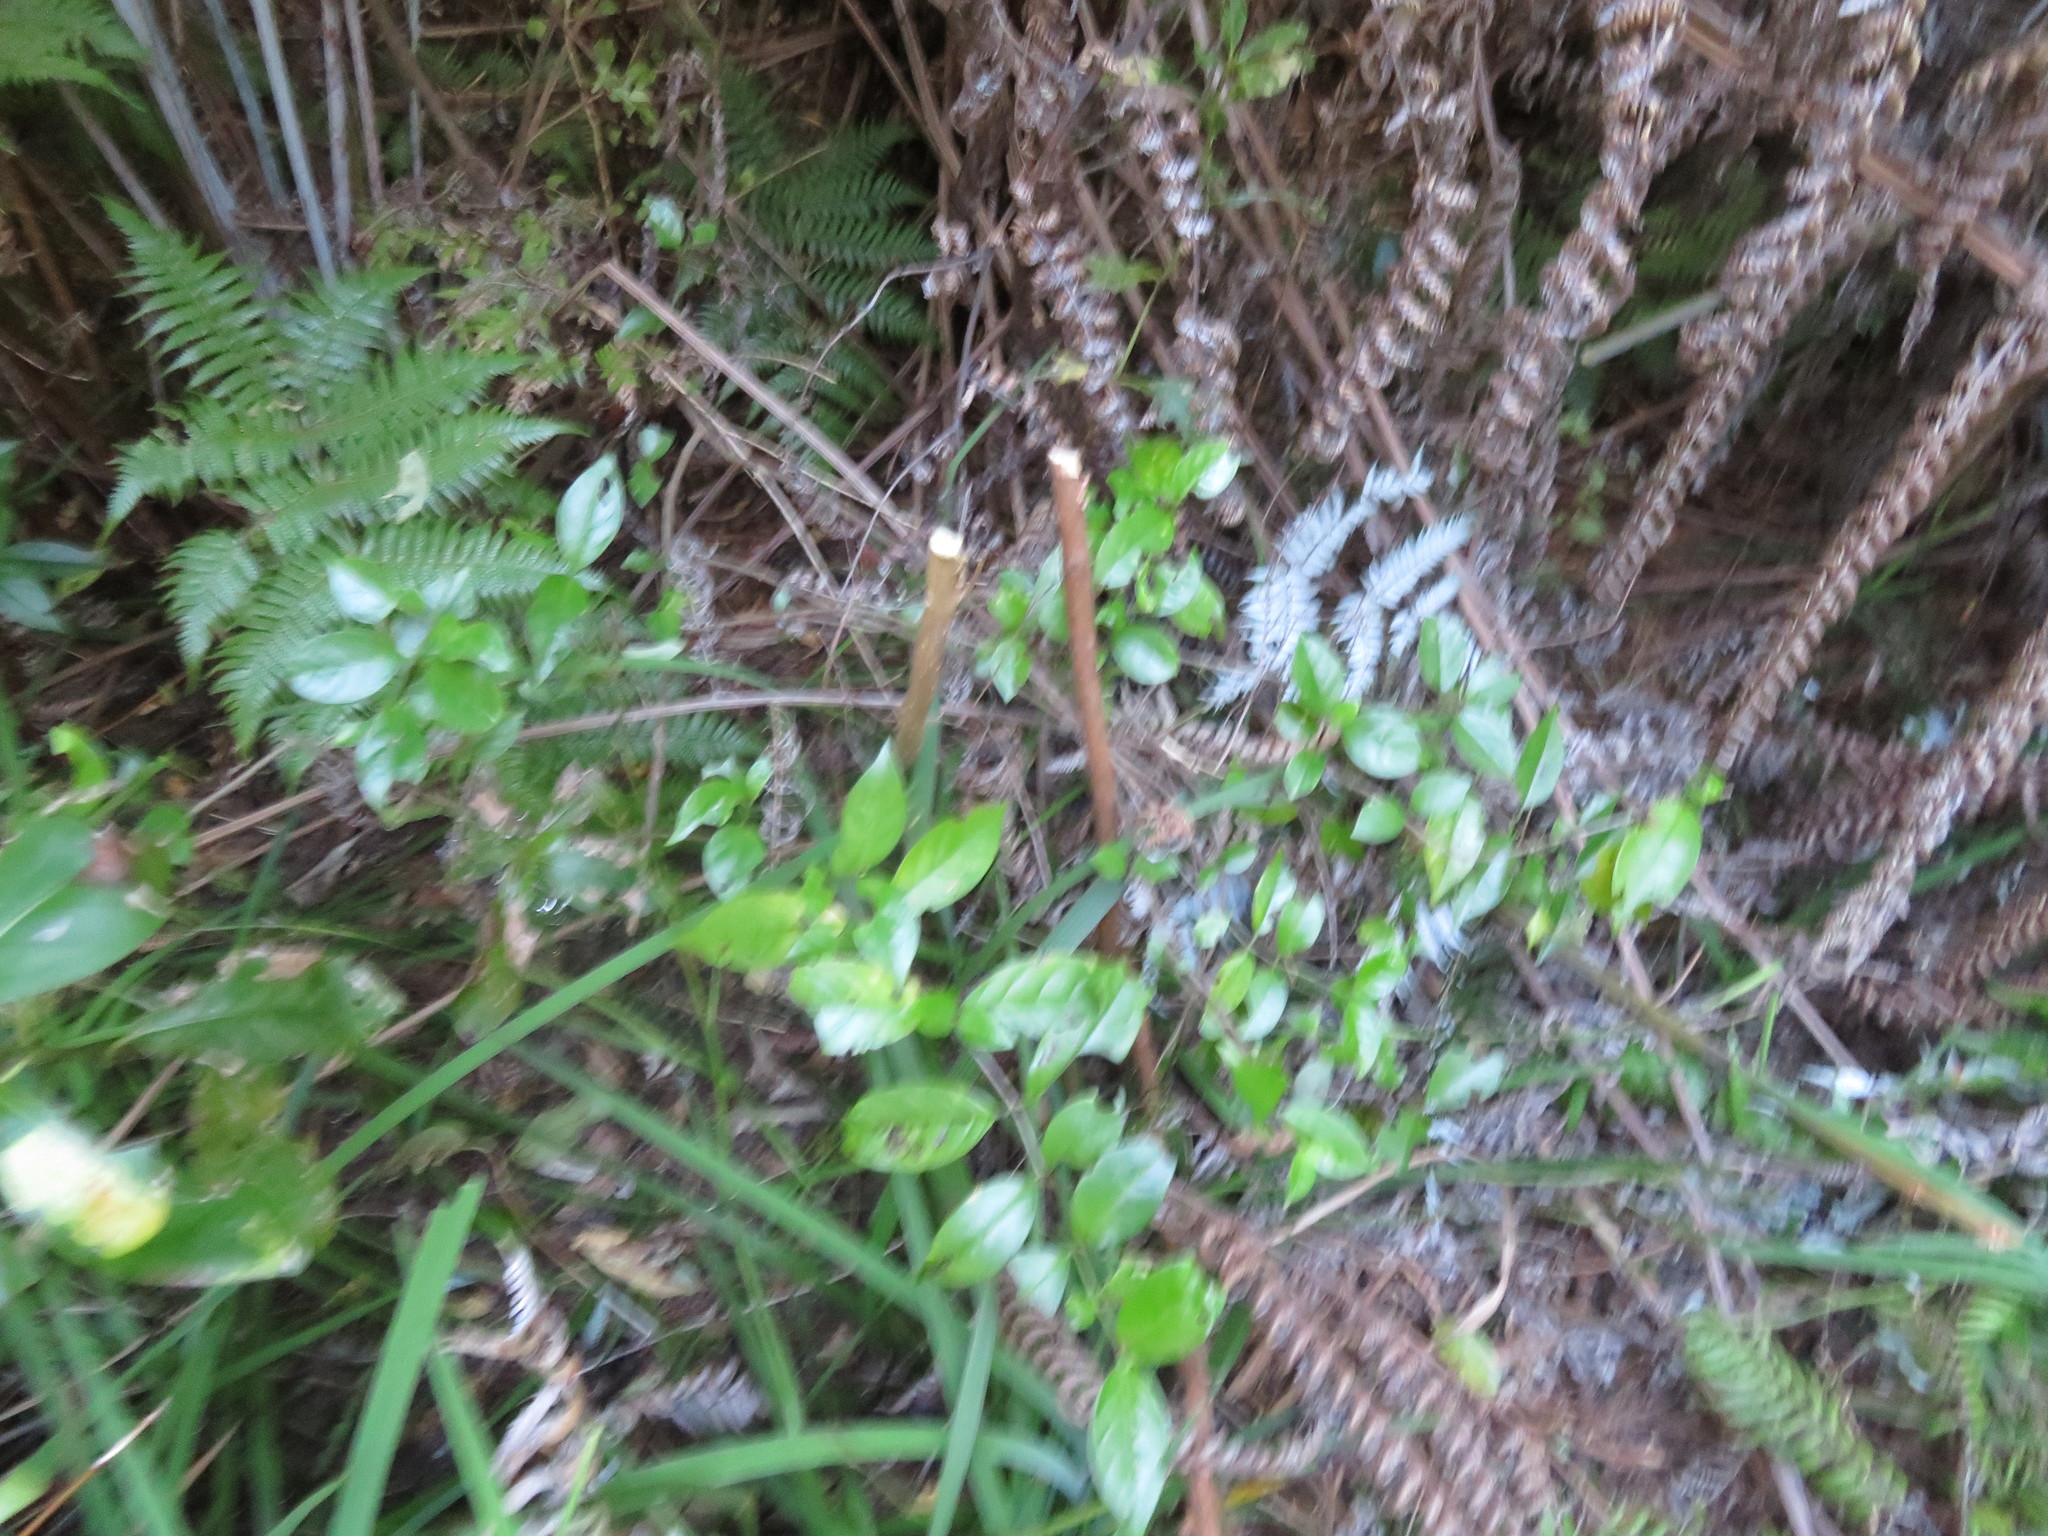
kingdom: Plantae
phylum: Tracheophyta
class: Magnoliopsida
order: Gentianales
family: Loganiaceae
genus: Geniostoma
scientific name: Geniostoma ligustrifolium
